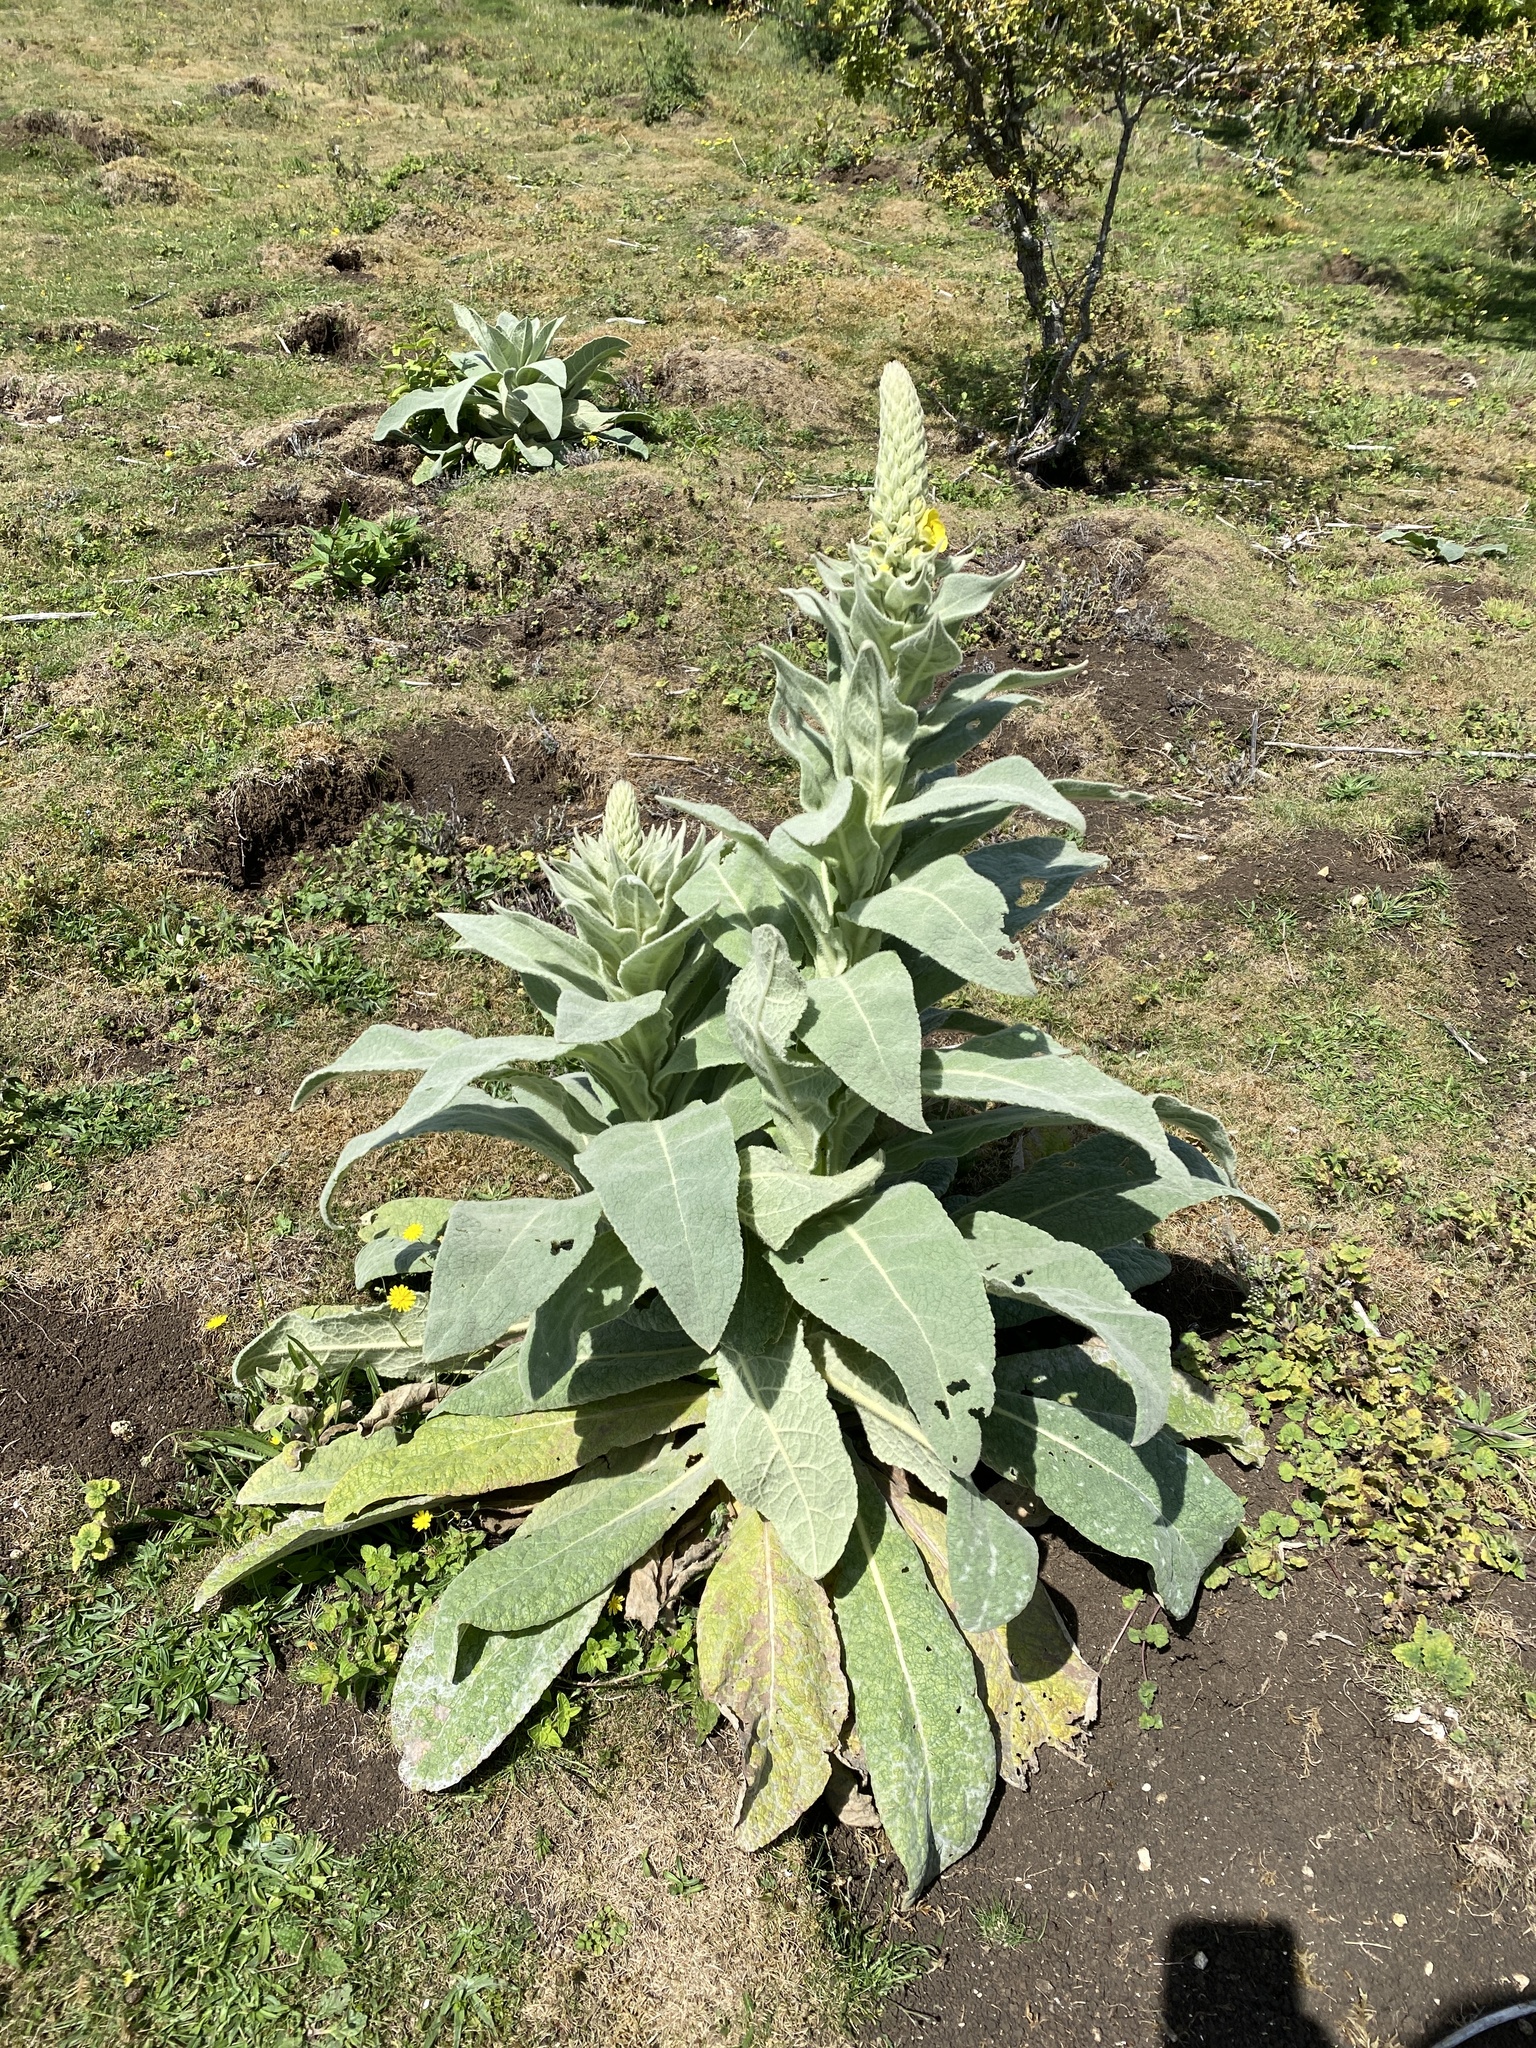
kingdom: Plantae
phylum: Tracheophyta
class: Magnoliopsida
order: Lamiales
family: Scrophulariaceae
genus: Verbascum
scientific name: Verbascum thapsus
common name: Common mullein
